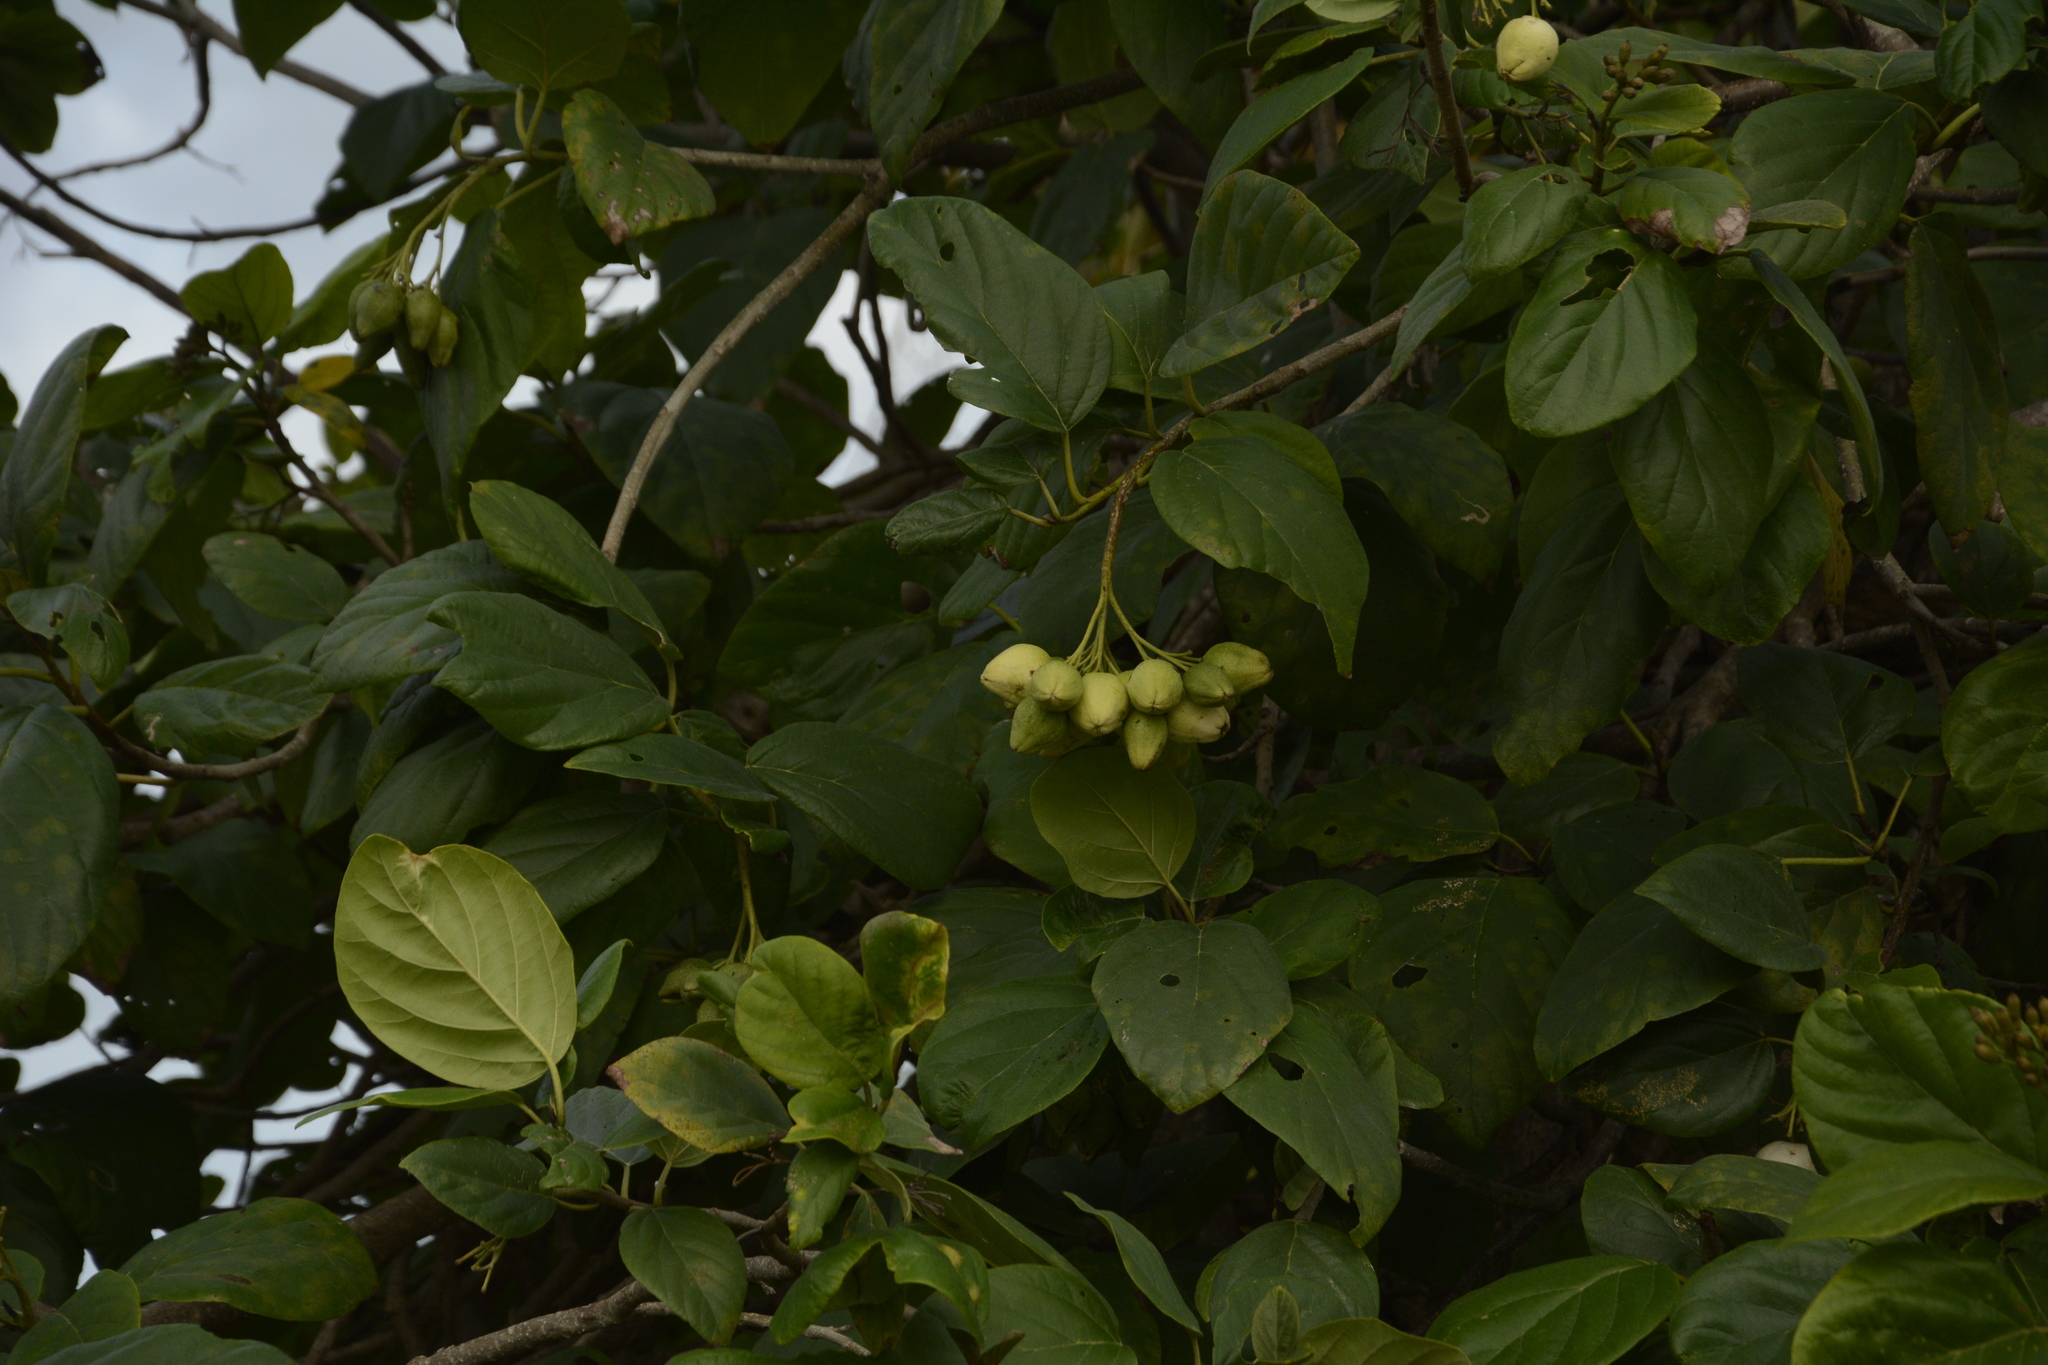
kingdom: Plantae
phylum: Tracheophyta
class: Magnoliopsida
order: Boraginales
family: Cordiaceae
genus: Cordia
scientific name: Cordia sebestena
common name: Largeleaf geigertree
